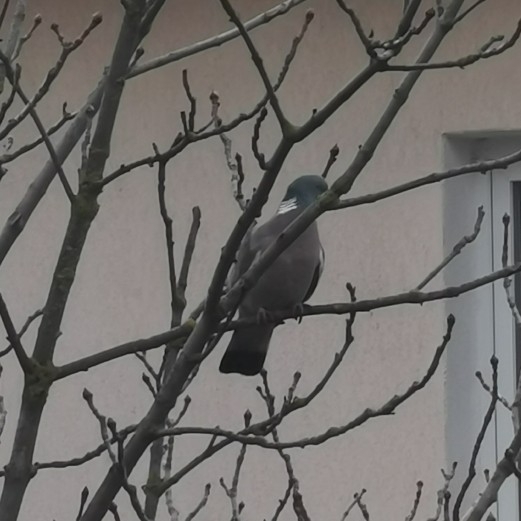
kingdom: Animalia
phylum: Chordata
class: Aves
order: Columbiformes
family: Columbidae
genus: Columba
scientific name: Columba palumbus
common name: Common wood pigeon
